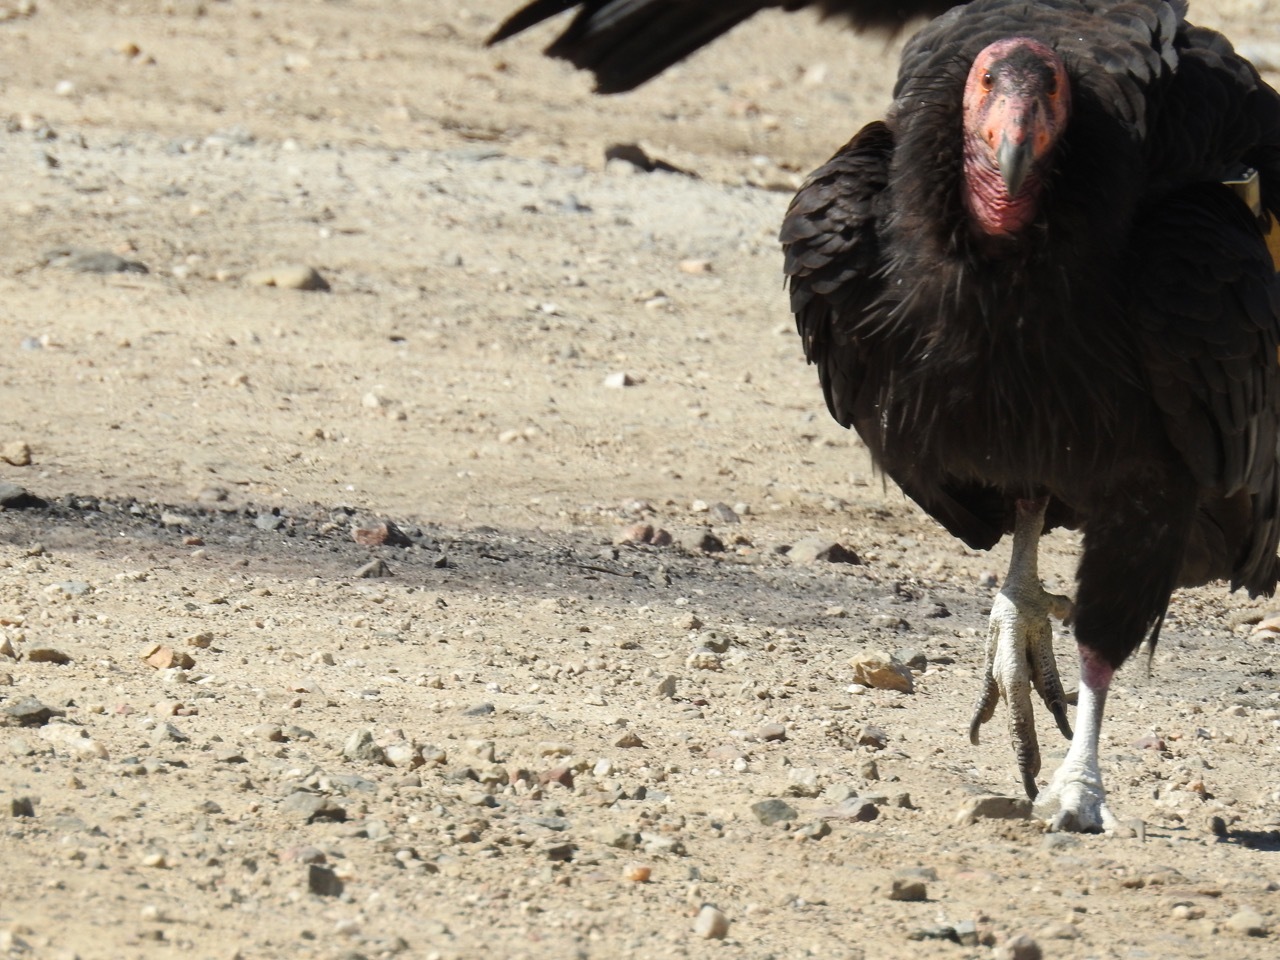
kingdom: Animalia
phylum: Chordata
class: Aves
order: Accipitriformes
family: Cathartidae
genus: Gymnogyps
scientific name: Gymnogyps californianus
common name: California condor
